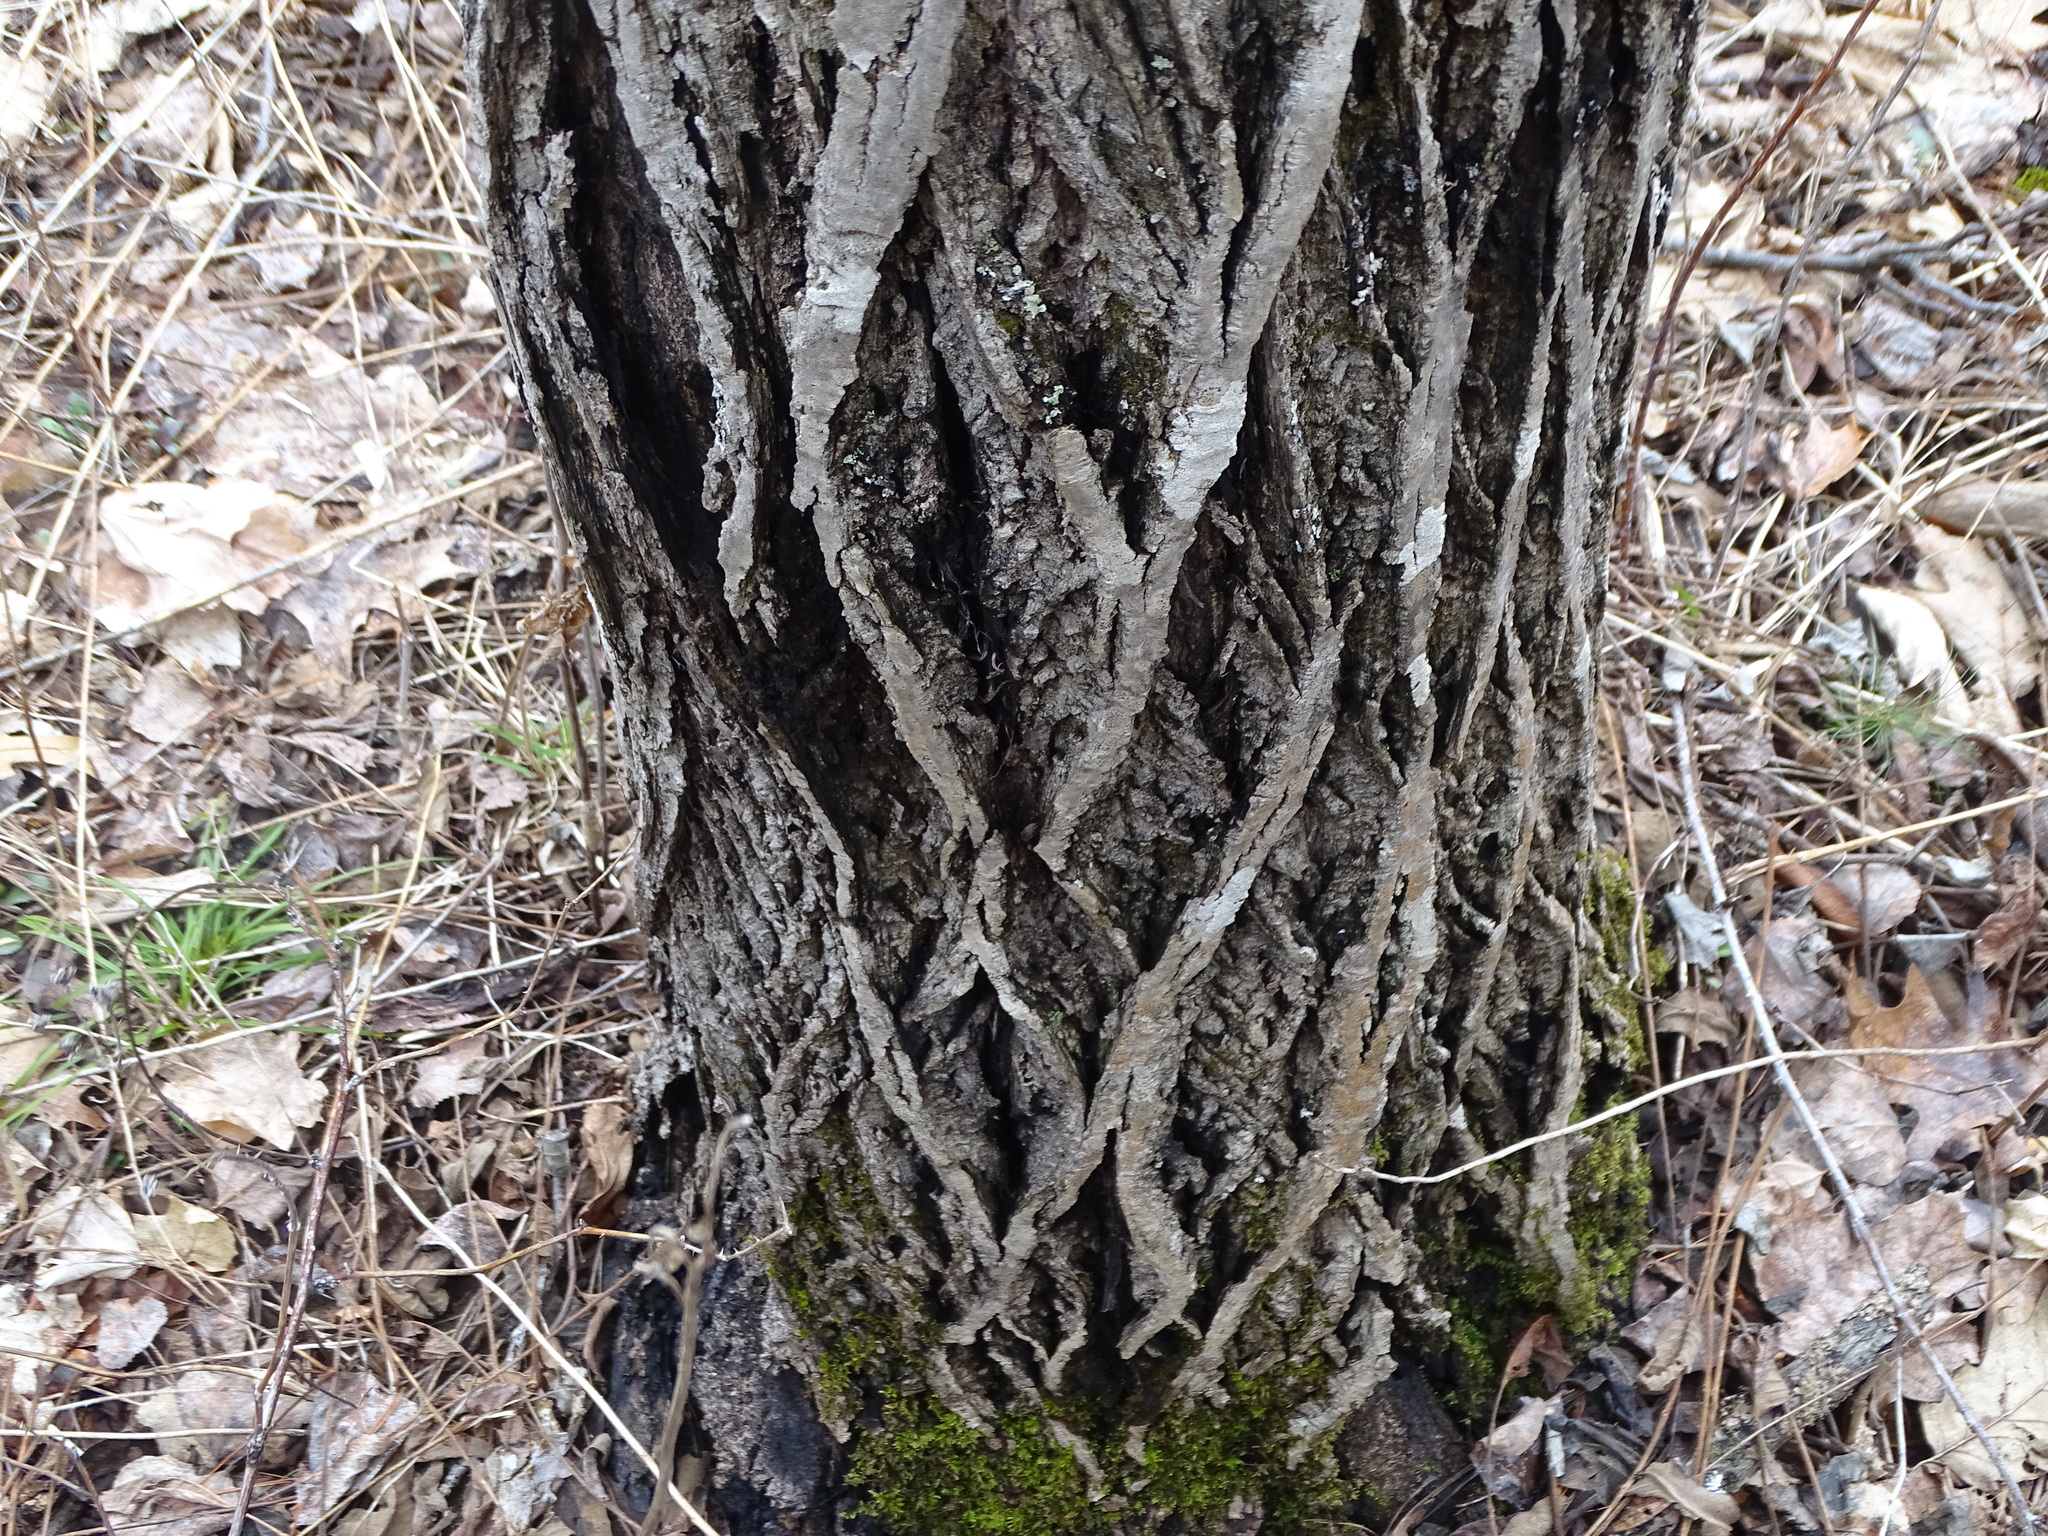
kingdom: Plantae
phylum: Tracheophyta
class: Magnoliopsida
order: Fagales
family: Juglandaceae
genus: Juglans
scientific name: Juglans cinerea
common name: Butternut
